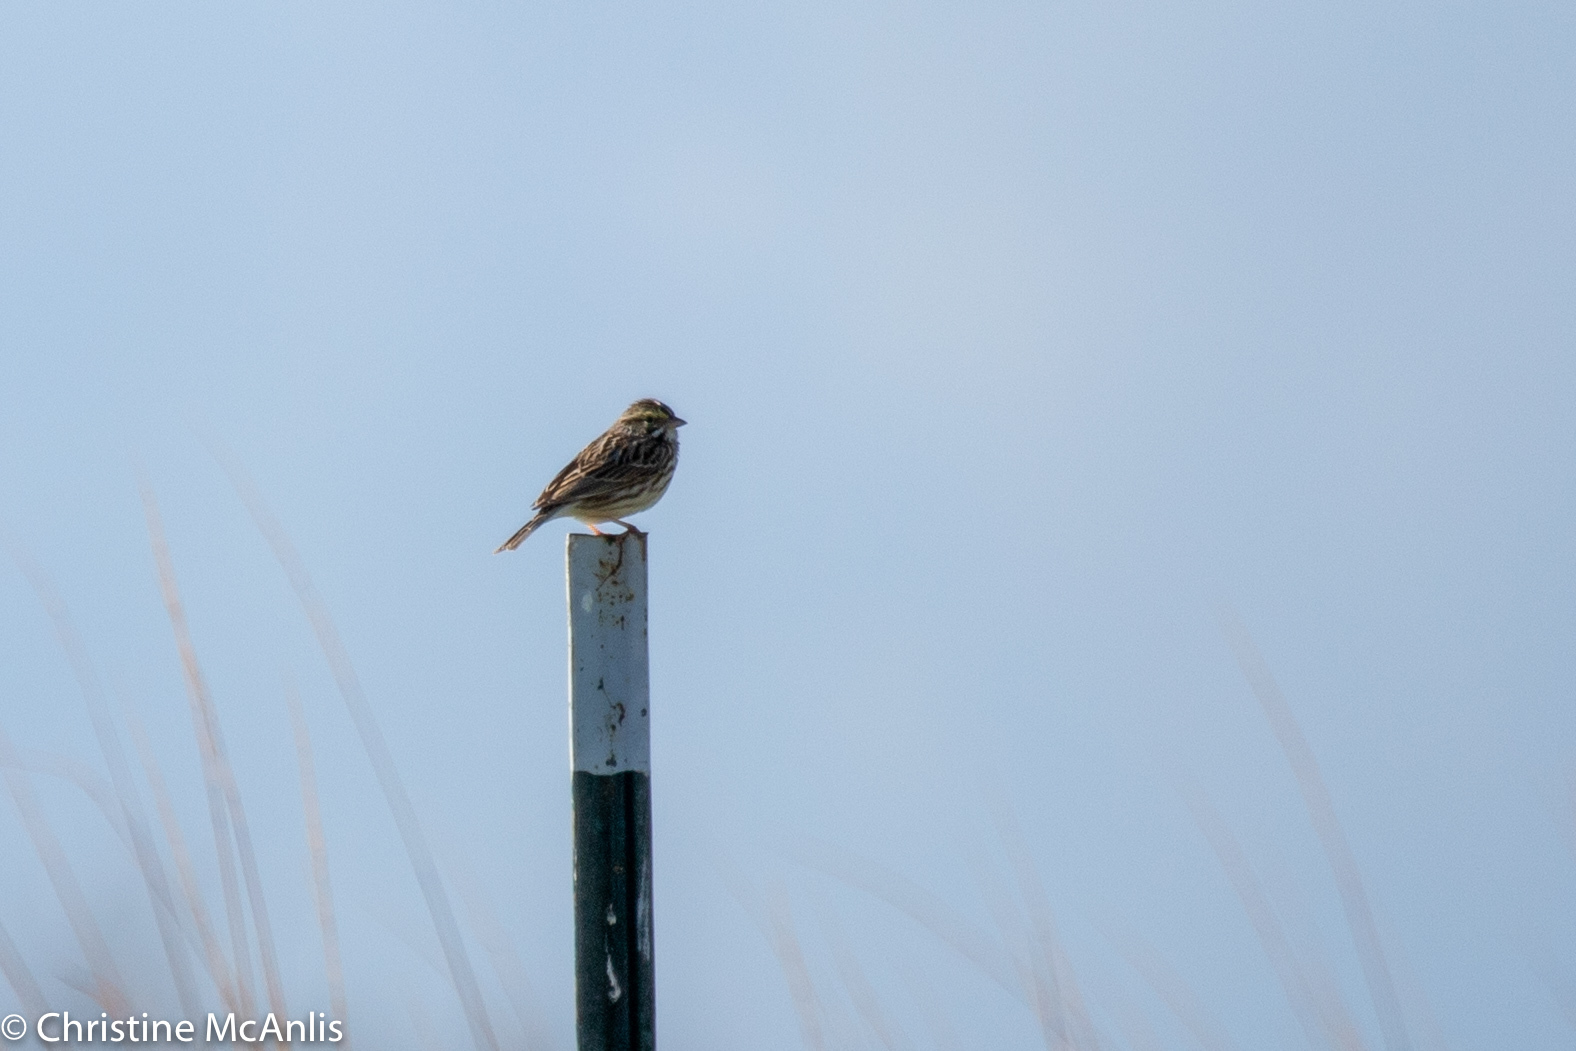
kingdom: Animalia
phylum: Chordata
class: Aves
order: Passeriformes
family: Passerellidae
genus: Passerculus
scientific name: Passerculus sandwichensis
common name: Savannah sparrow
